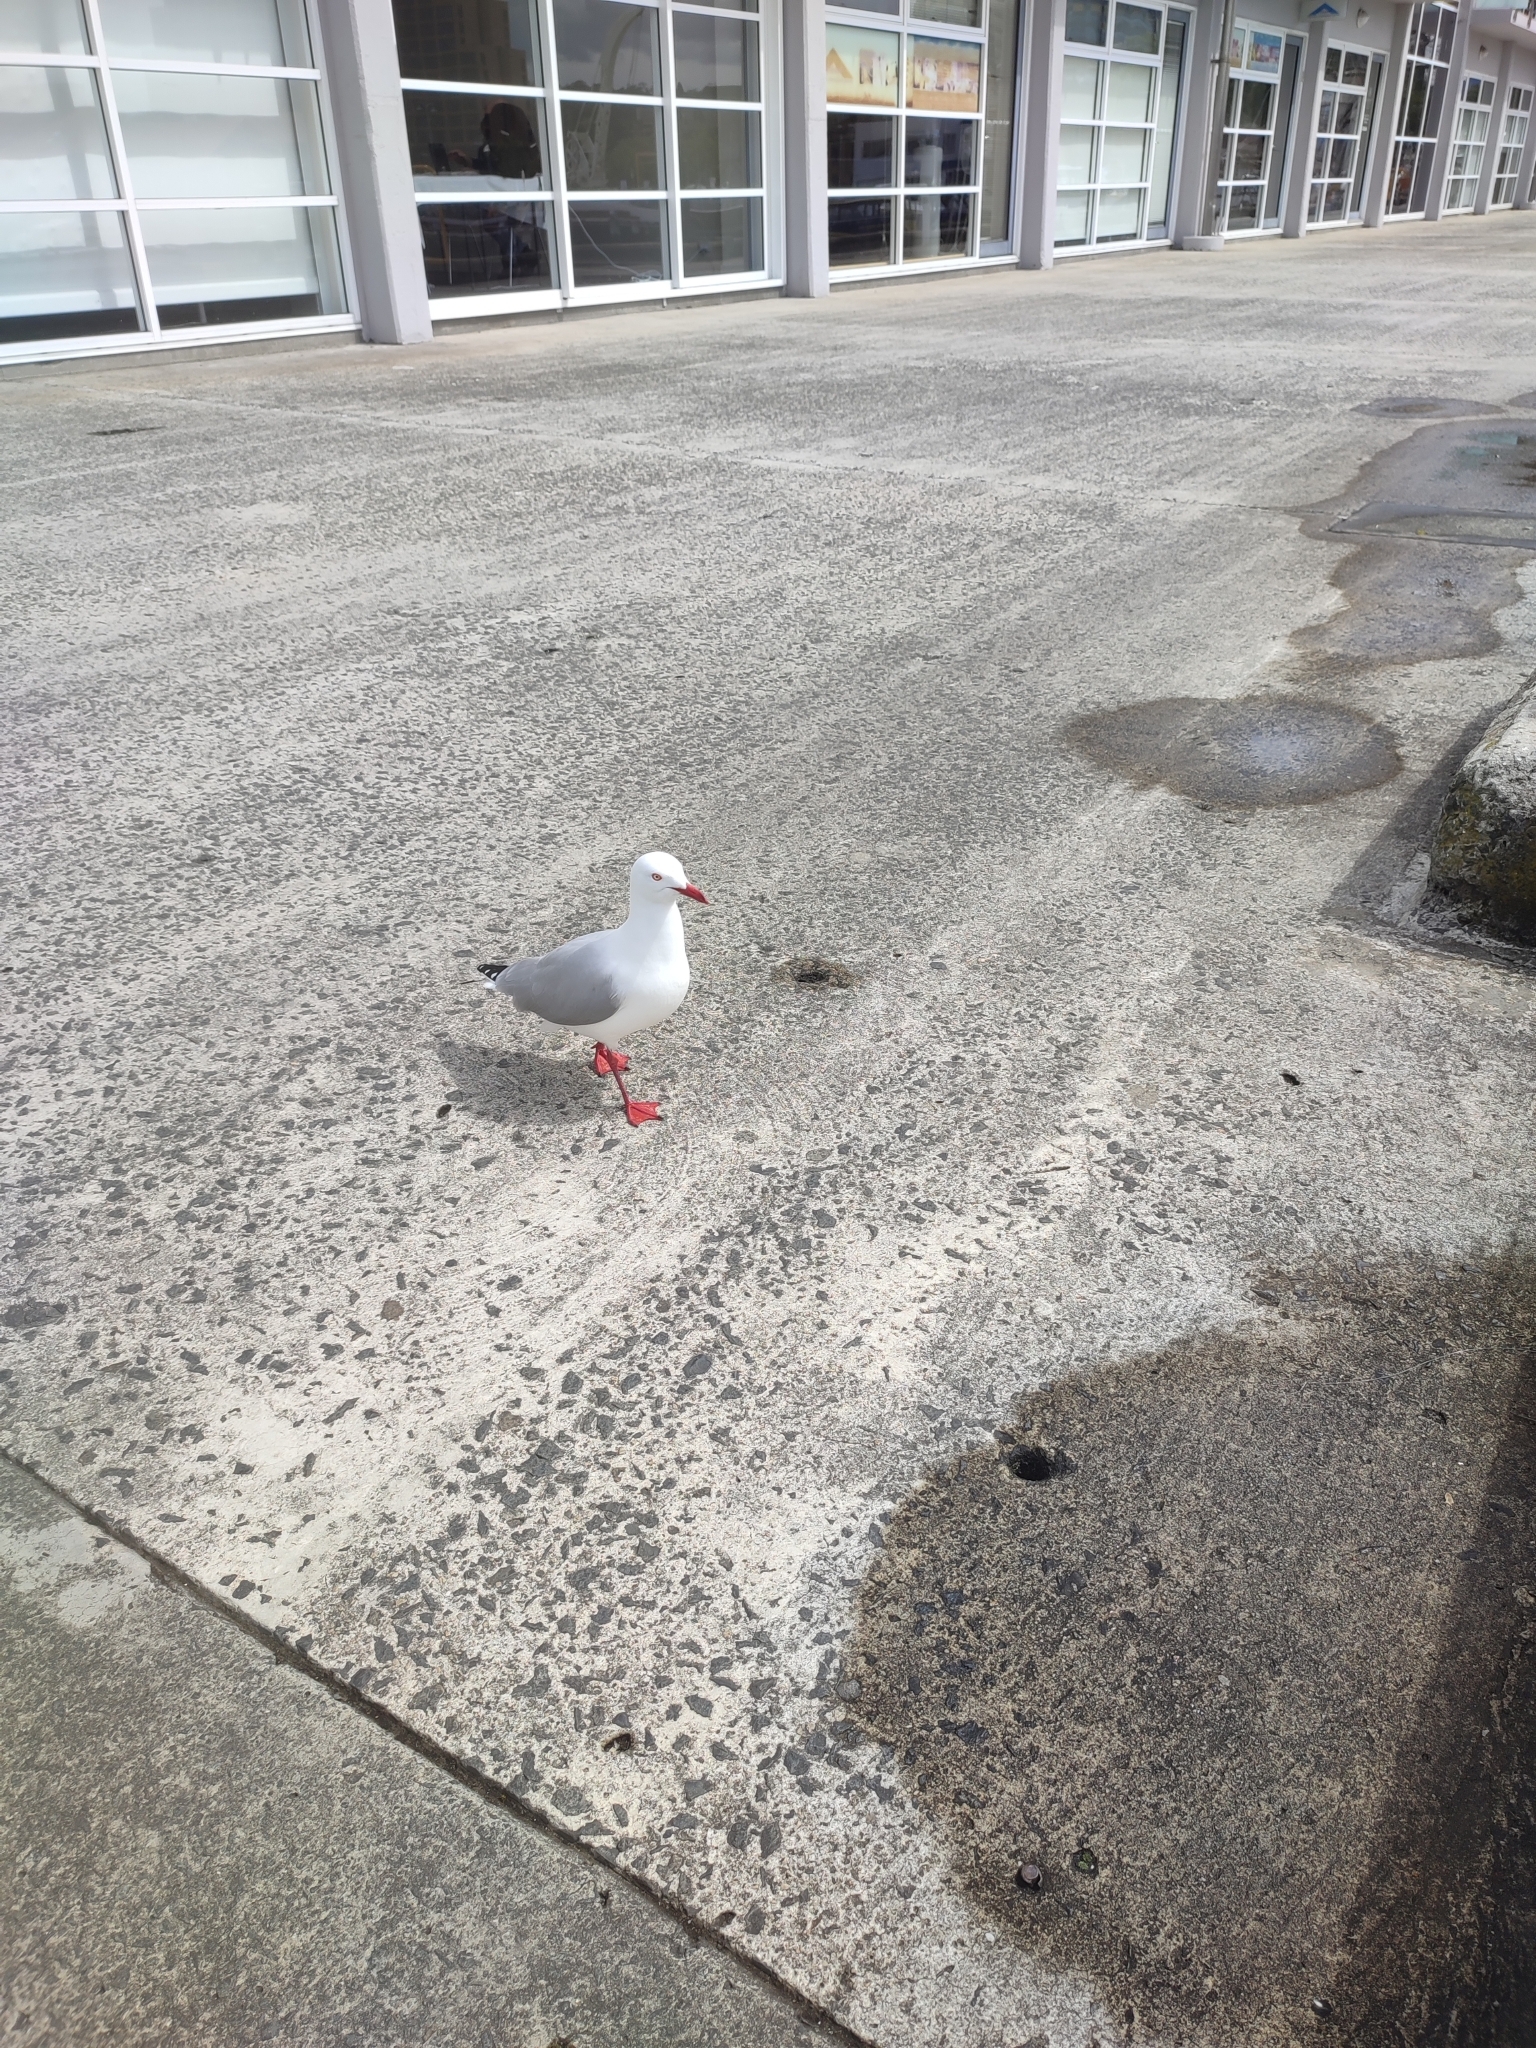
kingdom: Animalia
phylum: Chordata
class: Aves
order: Charadriiformes
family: Laridae
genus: Chroicocephalus
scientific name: Chroicocephalus novaehollandiae
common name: Silver gull
